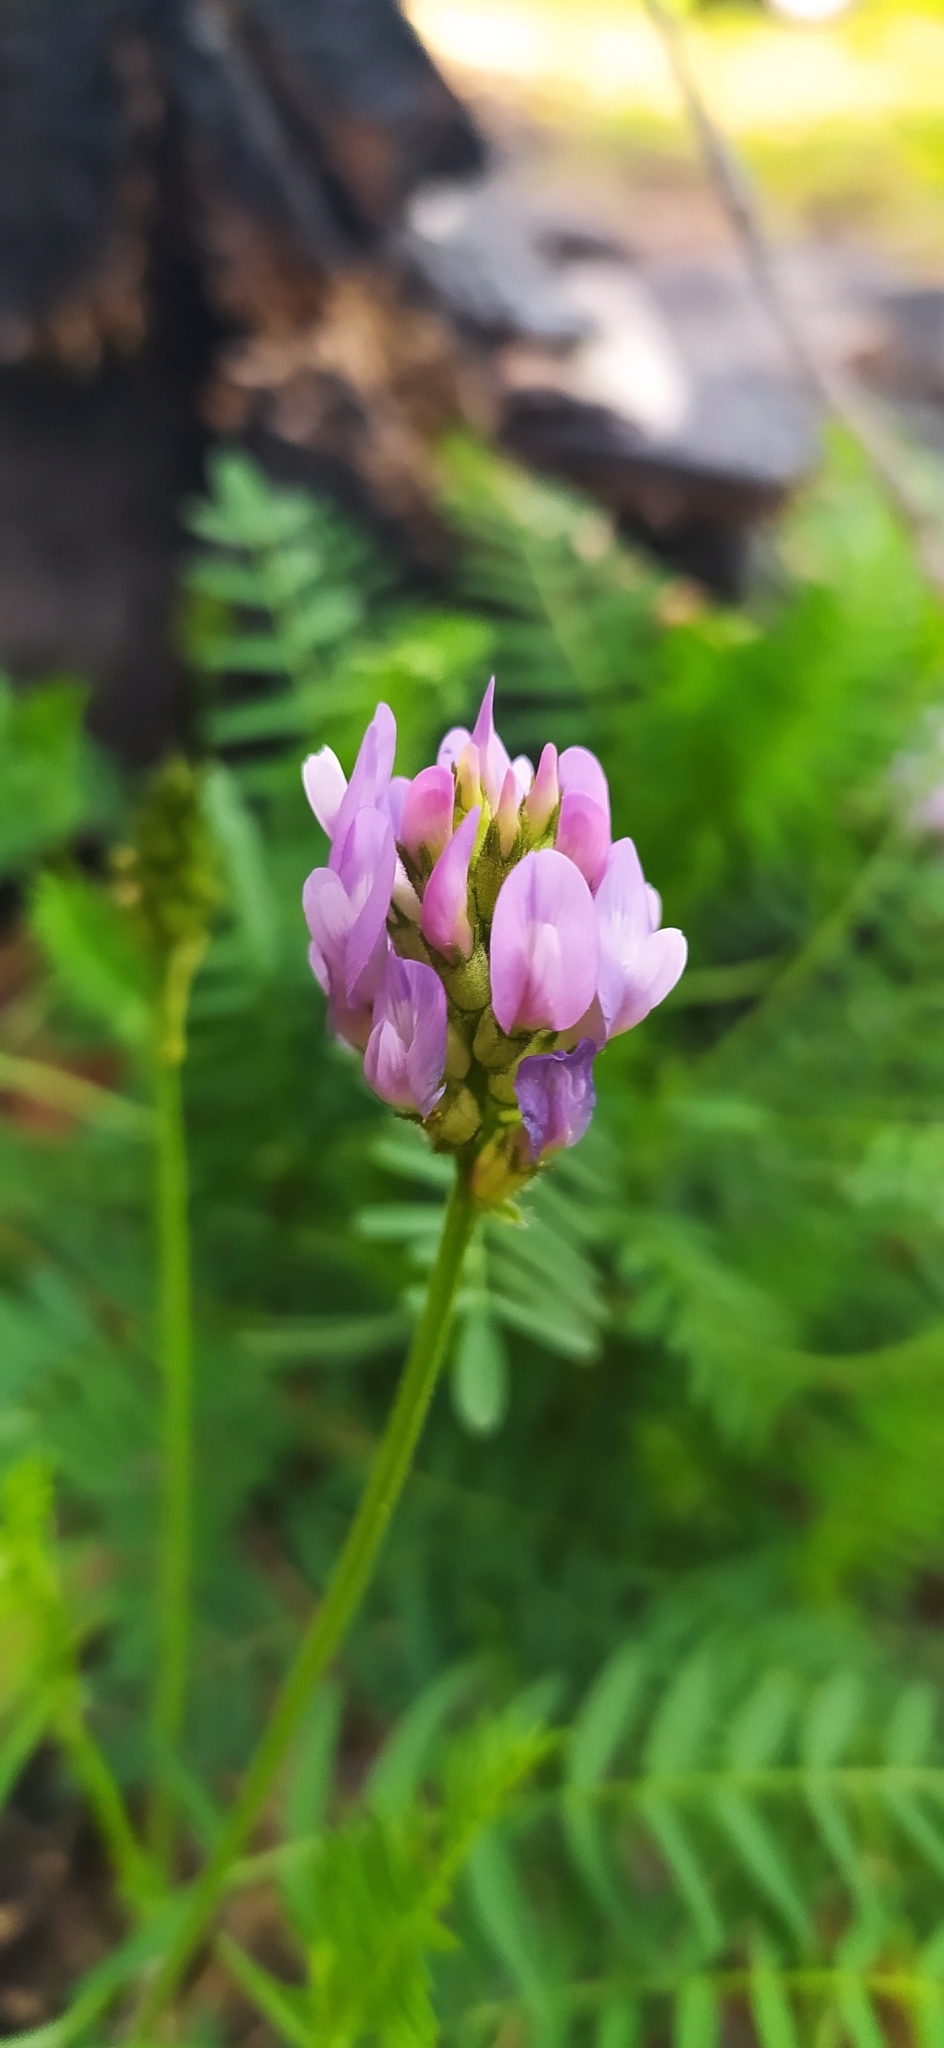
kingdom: Plantae
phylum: Tracheophyta
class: Magnoliopsida
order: Fabales
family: Fabaceae
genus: Astragalus
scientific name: Astragalus danicus
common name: Purple milk-vetch
